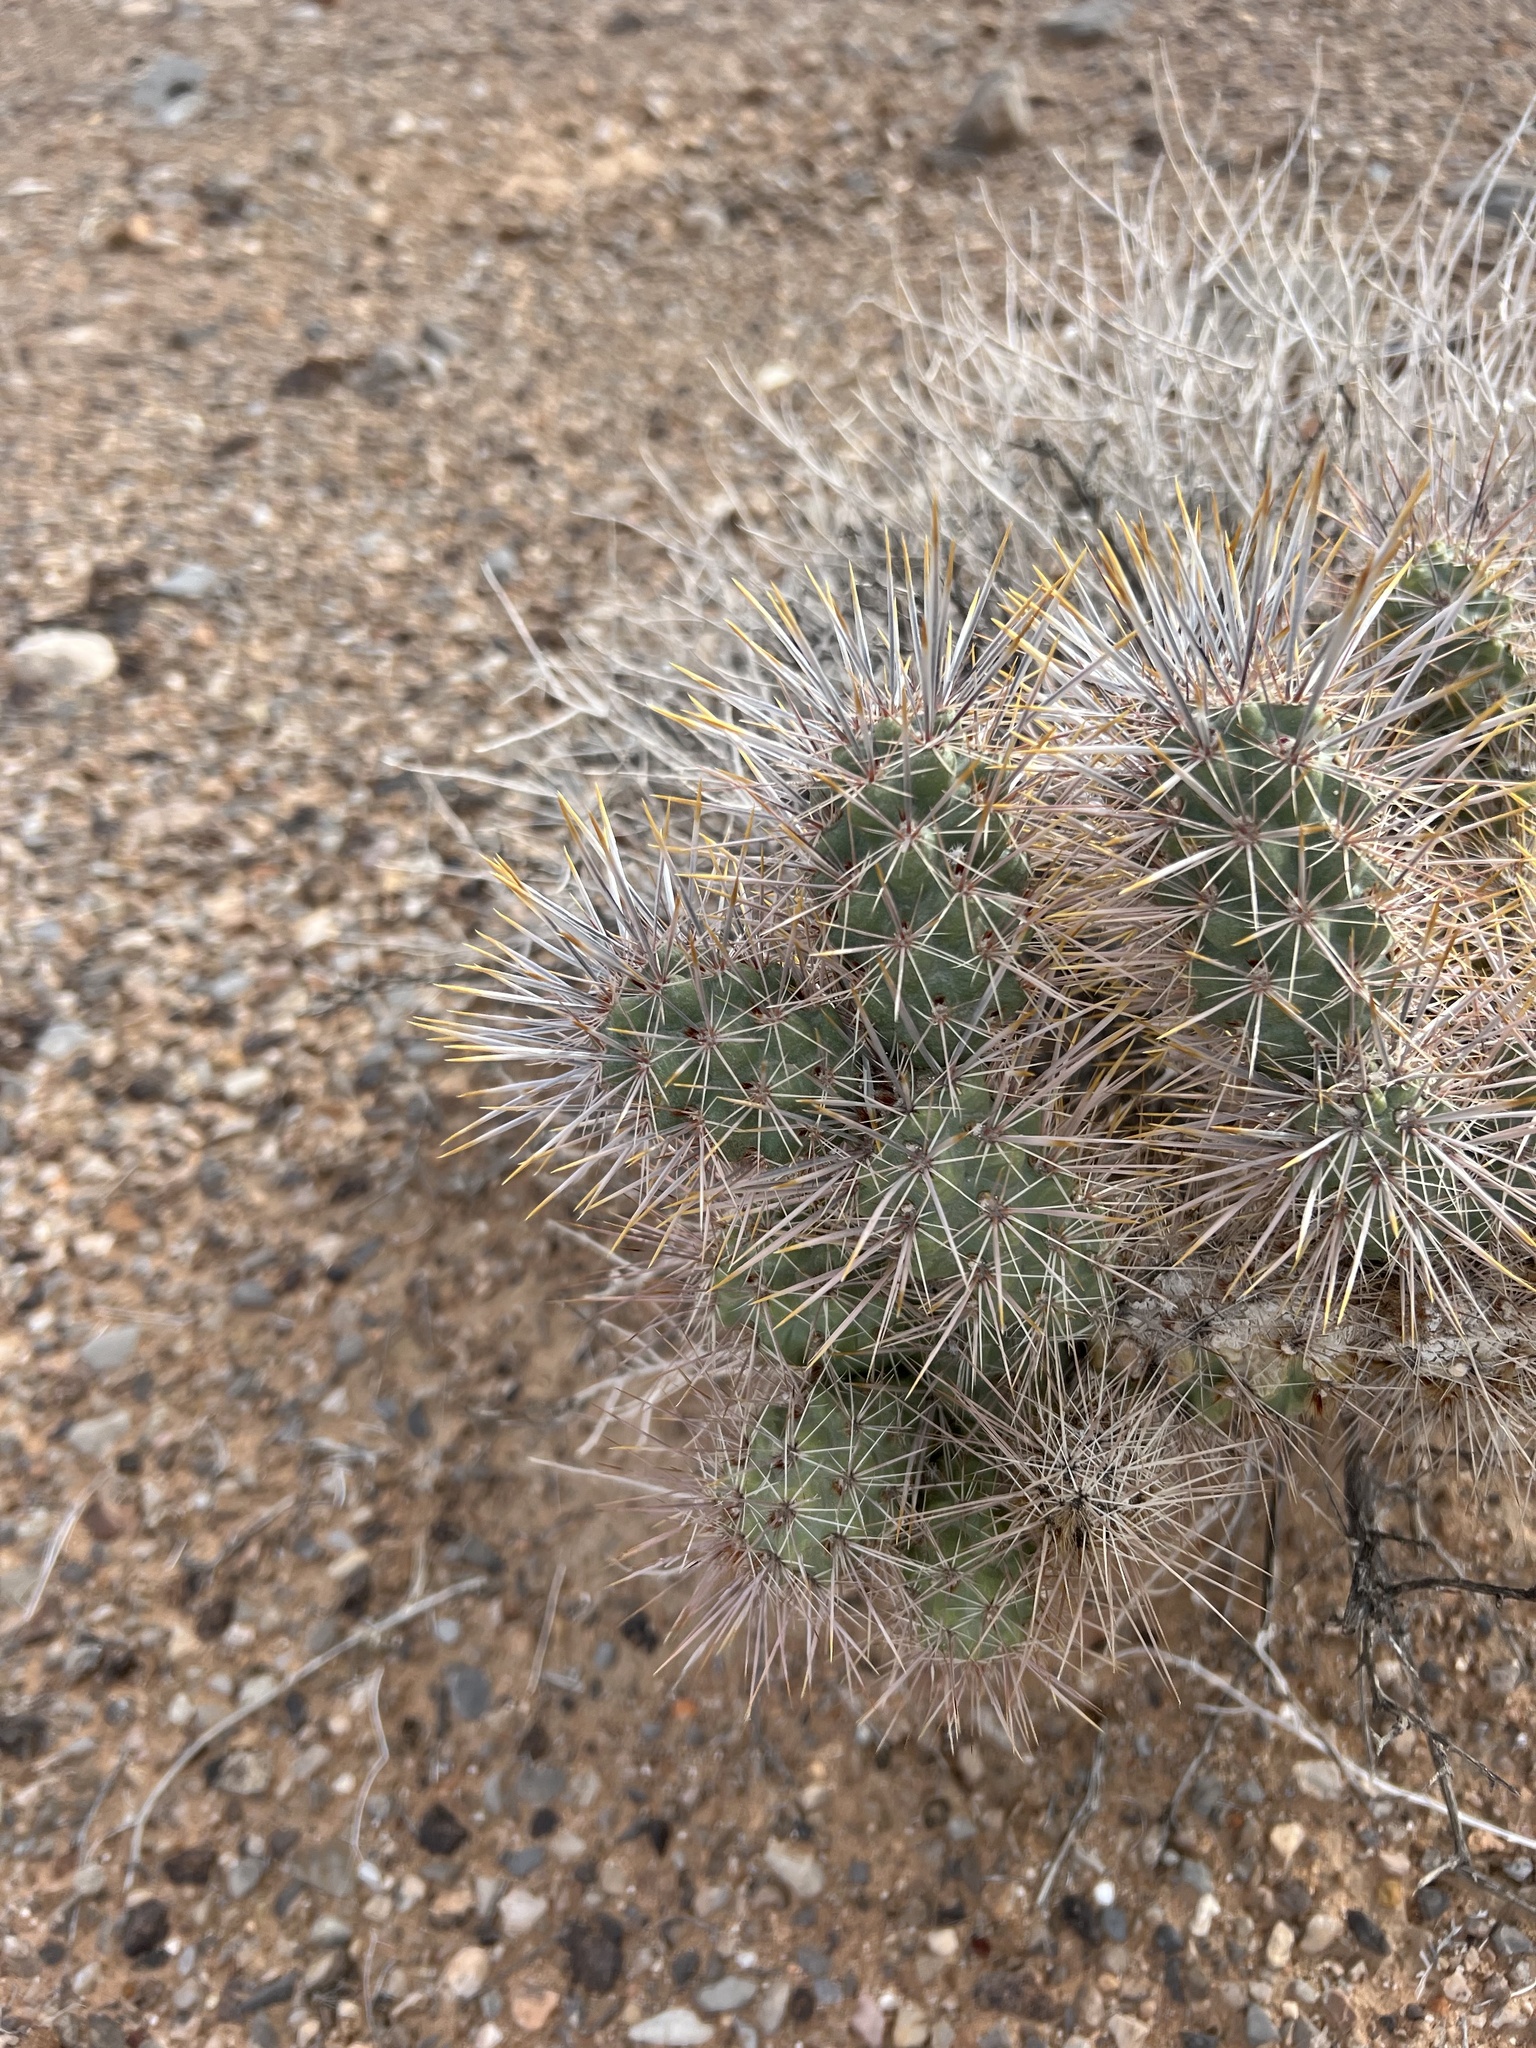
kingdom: Plantae
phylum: Tracheophyta
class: Magnoliopsida
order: Caryophyllales
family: Cactaceae
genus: Cylindropuntia
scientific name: Cylindropuntia echinocarpa
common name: Ground cholla
